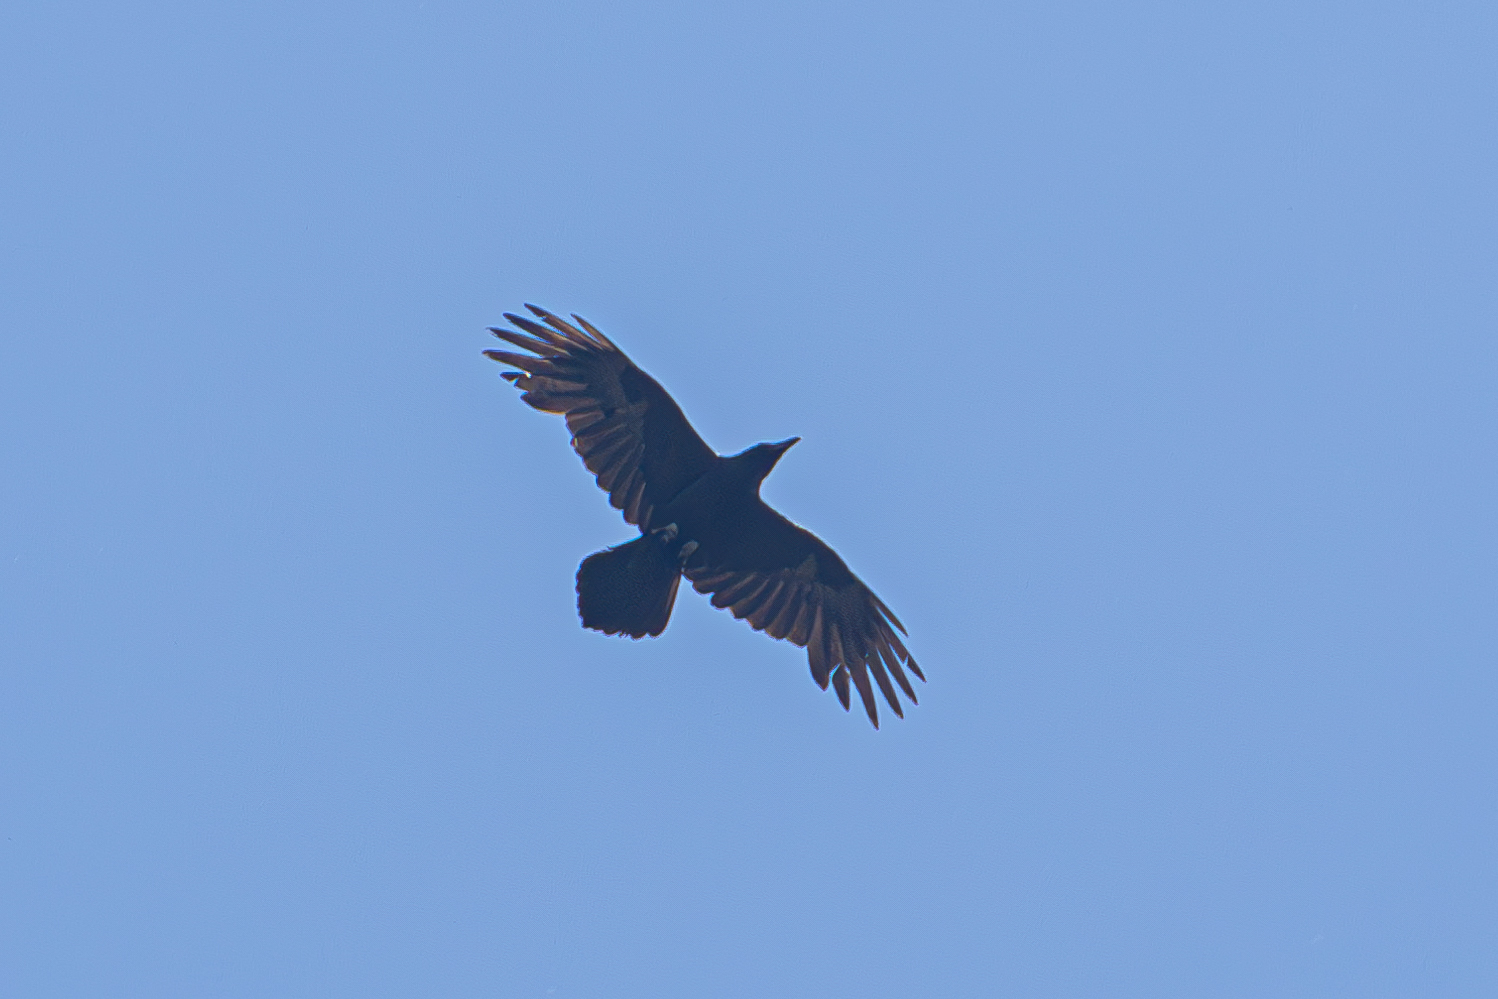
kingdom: Animalia
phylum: Chordata
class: Aves
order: Passeriformes
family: Corvidae
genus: Corvus
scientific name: Corvus corax
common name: Common raven
